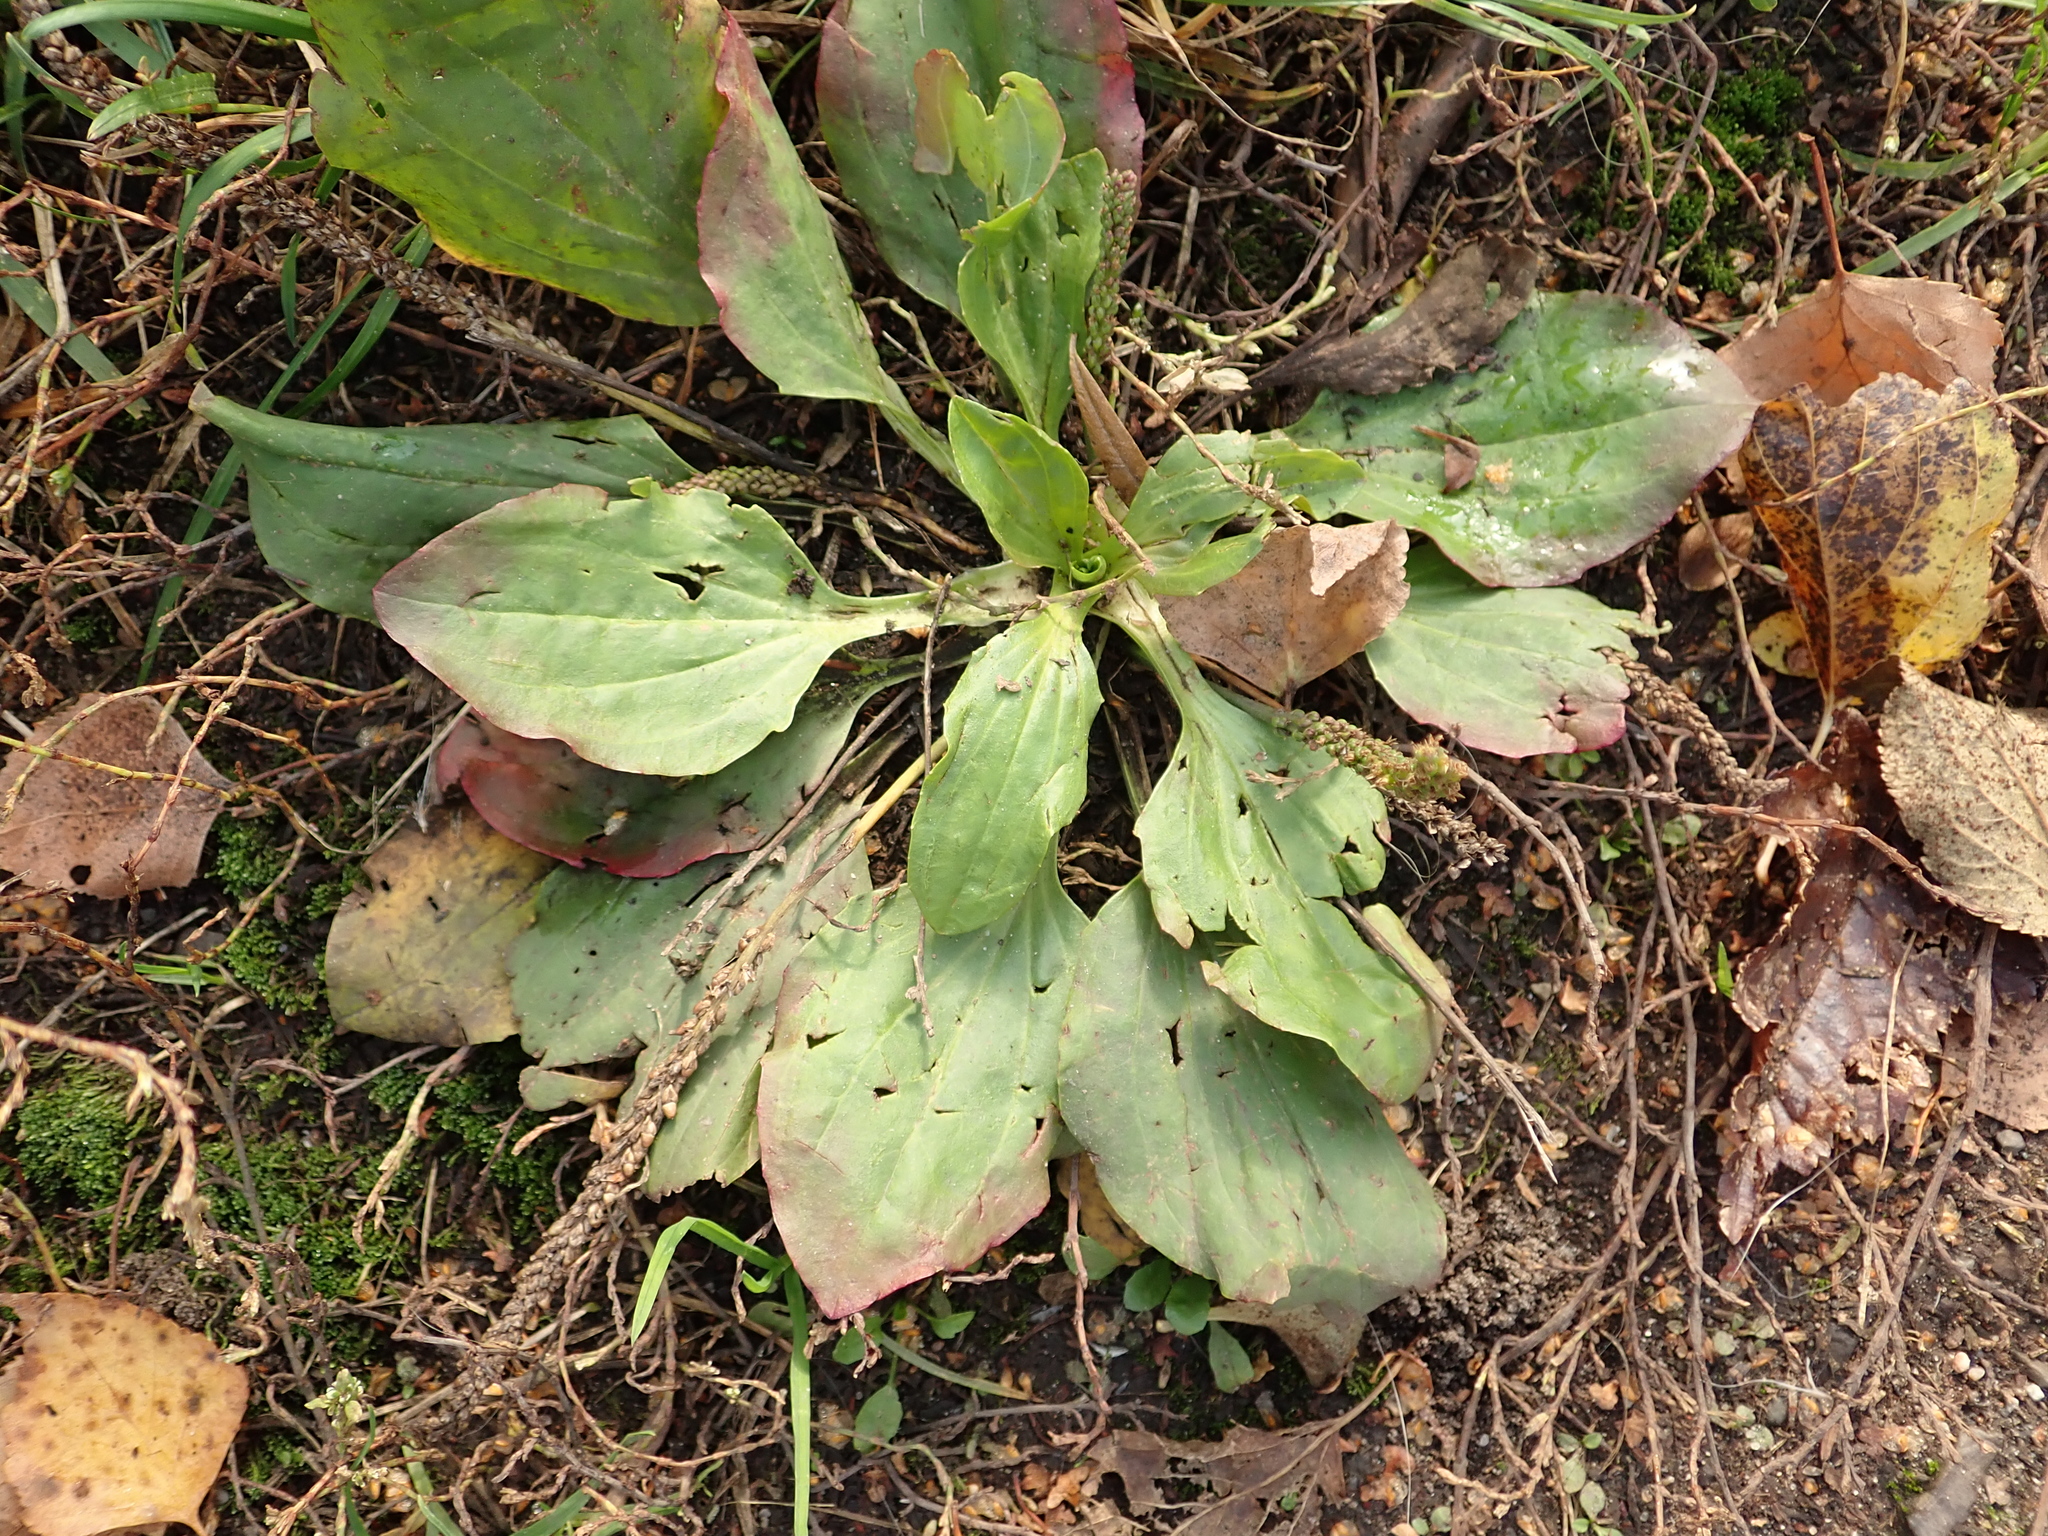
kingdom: Plantae
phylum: Tracheophyta
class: Magnoliopsida
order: Lamiales
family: Plantaginaceae
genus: Plantago
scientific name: Plantago major
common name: Common plantain
